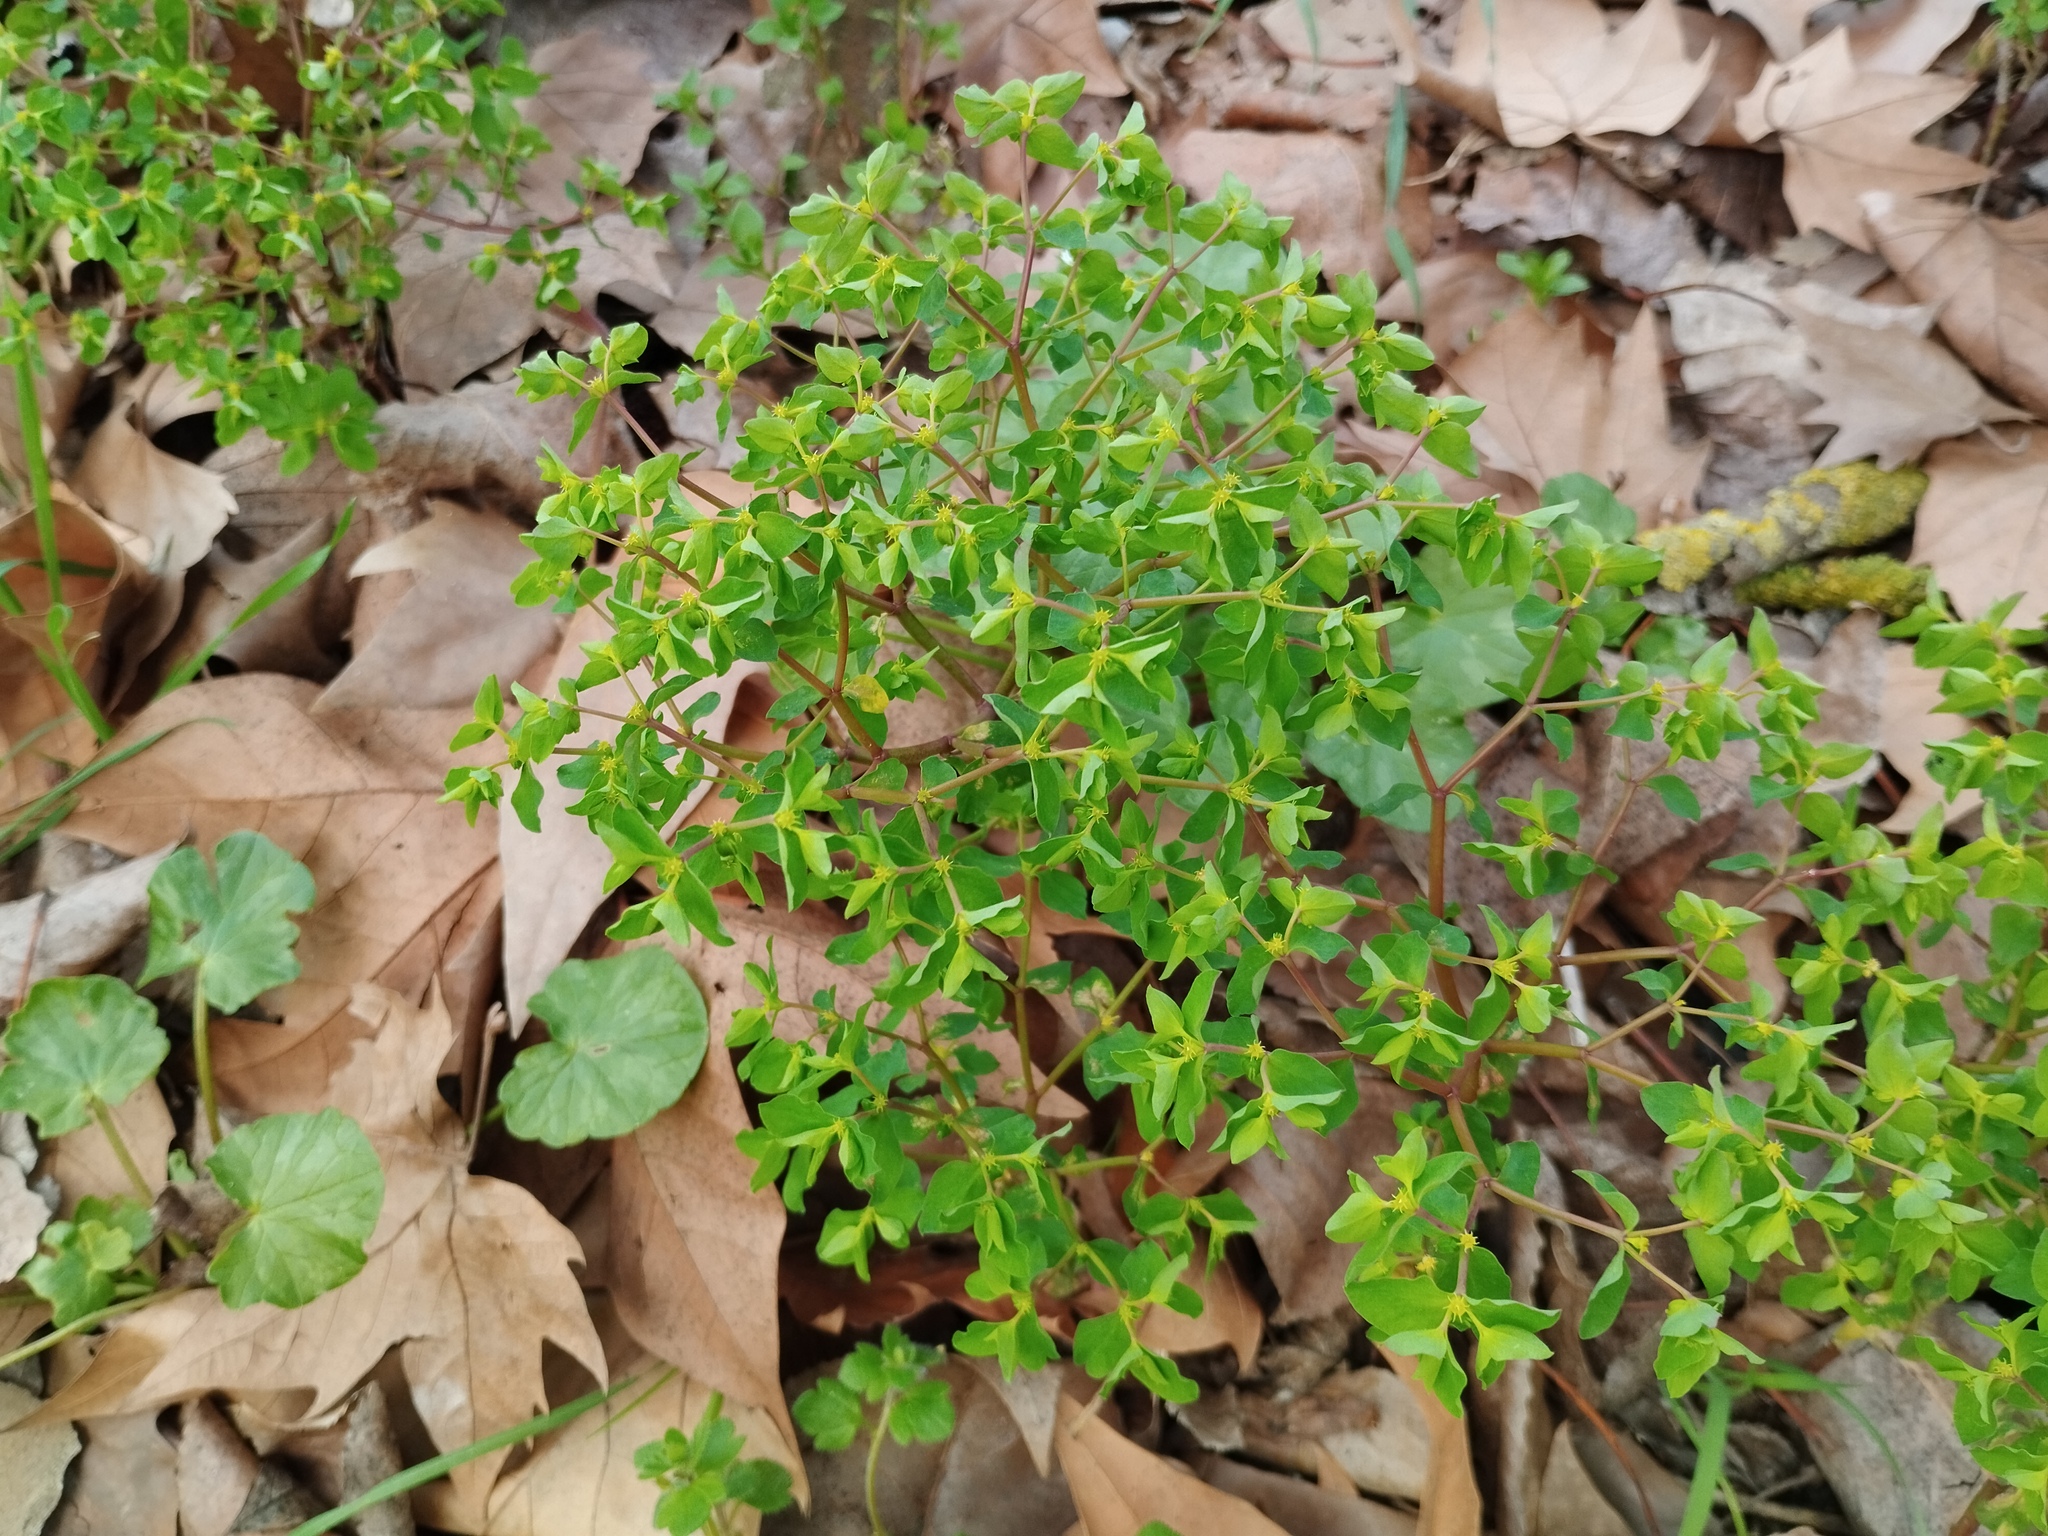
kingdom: Plantae
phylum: Tracheophyta
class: Magnoliopsida
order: Malpighiales
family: Euphorbiaceae
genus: Euphorbia
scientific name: Euphorbia peplus
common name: Petty spurge
